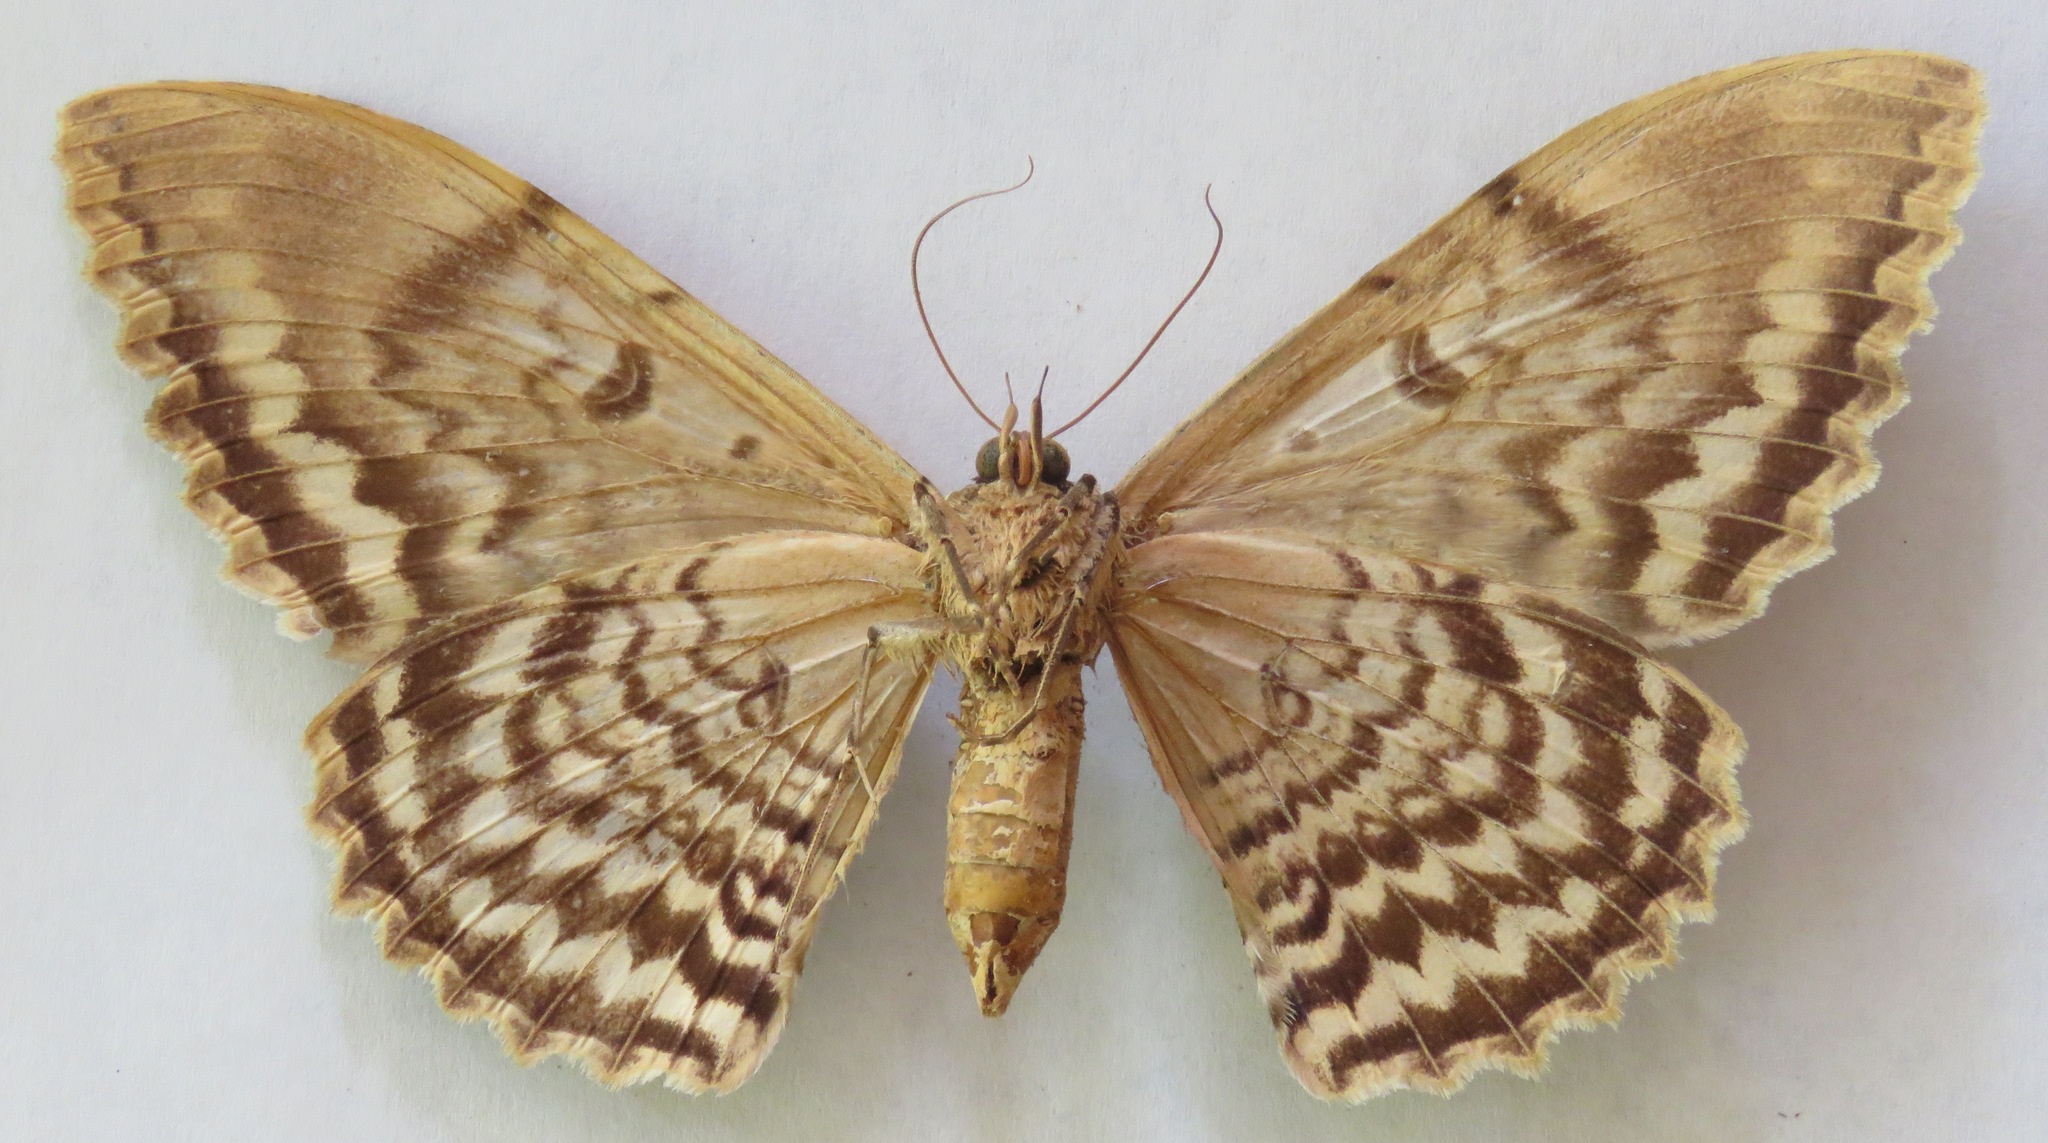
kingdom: Animalia
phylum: Arthropoda
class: Insecta
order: Lepidoptera
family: Erebidae
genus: Thysania
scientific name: Thysania zenobia
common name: Owl moth
